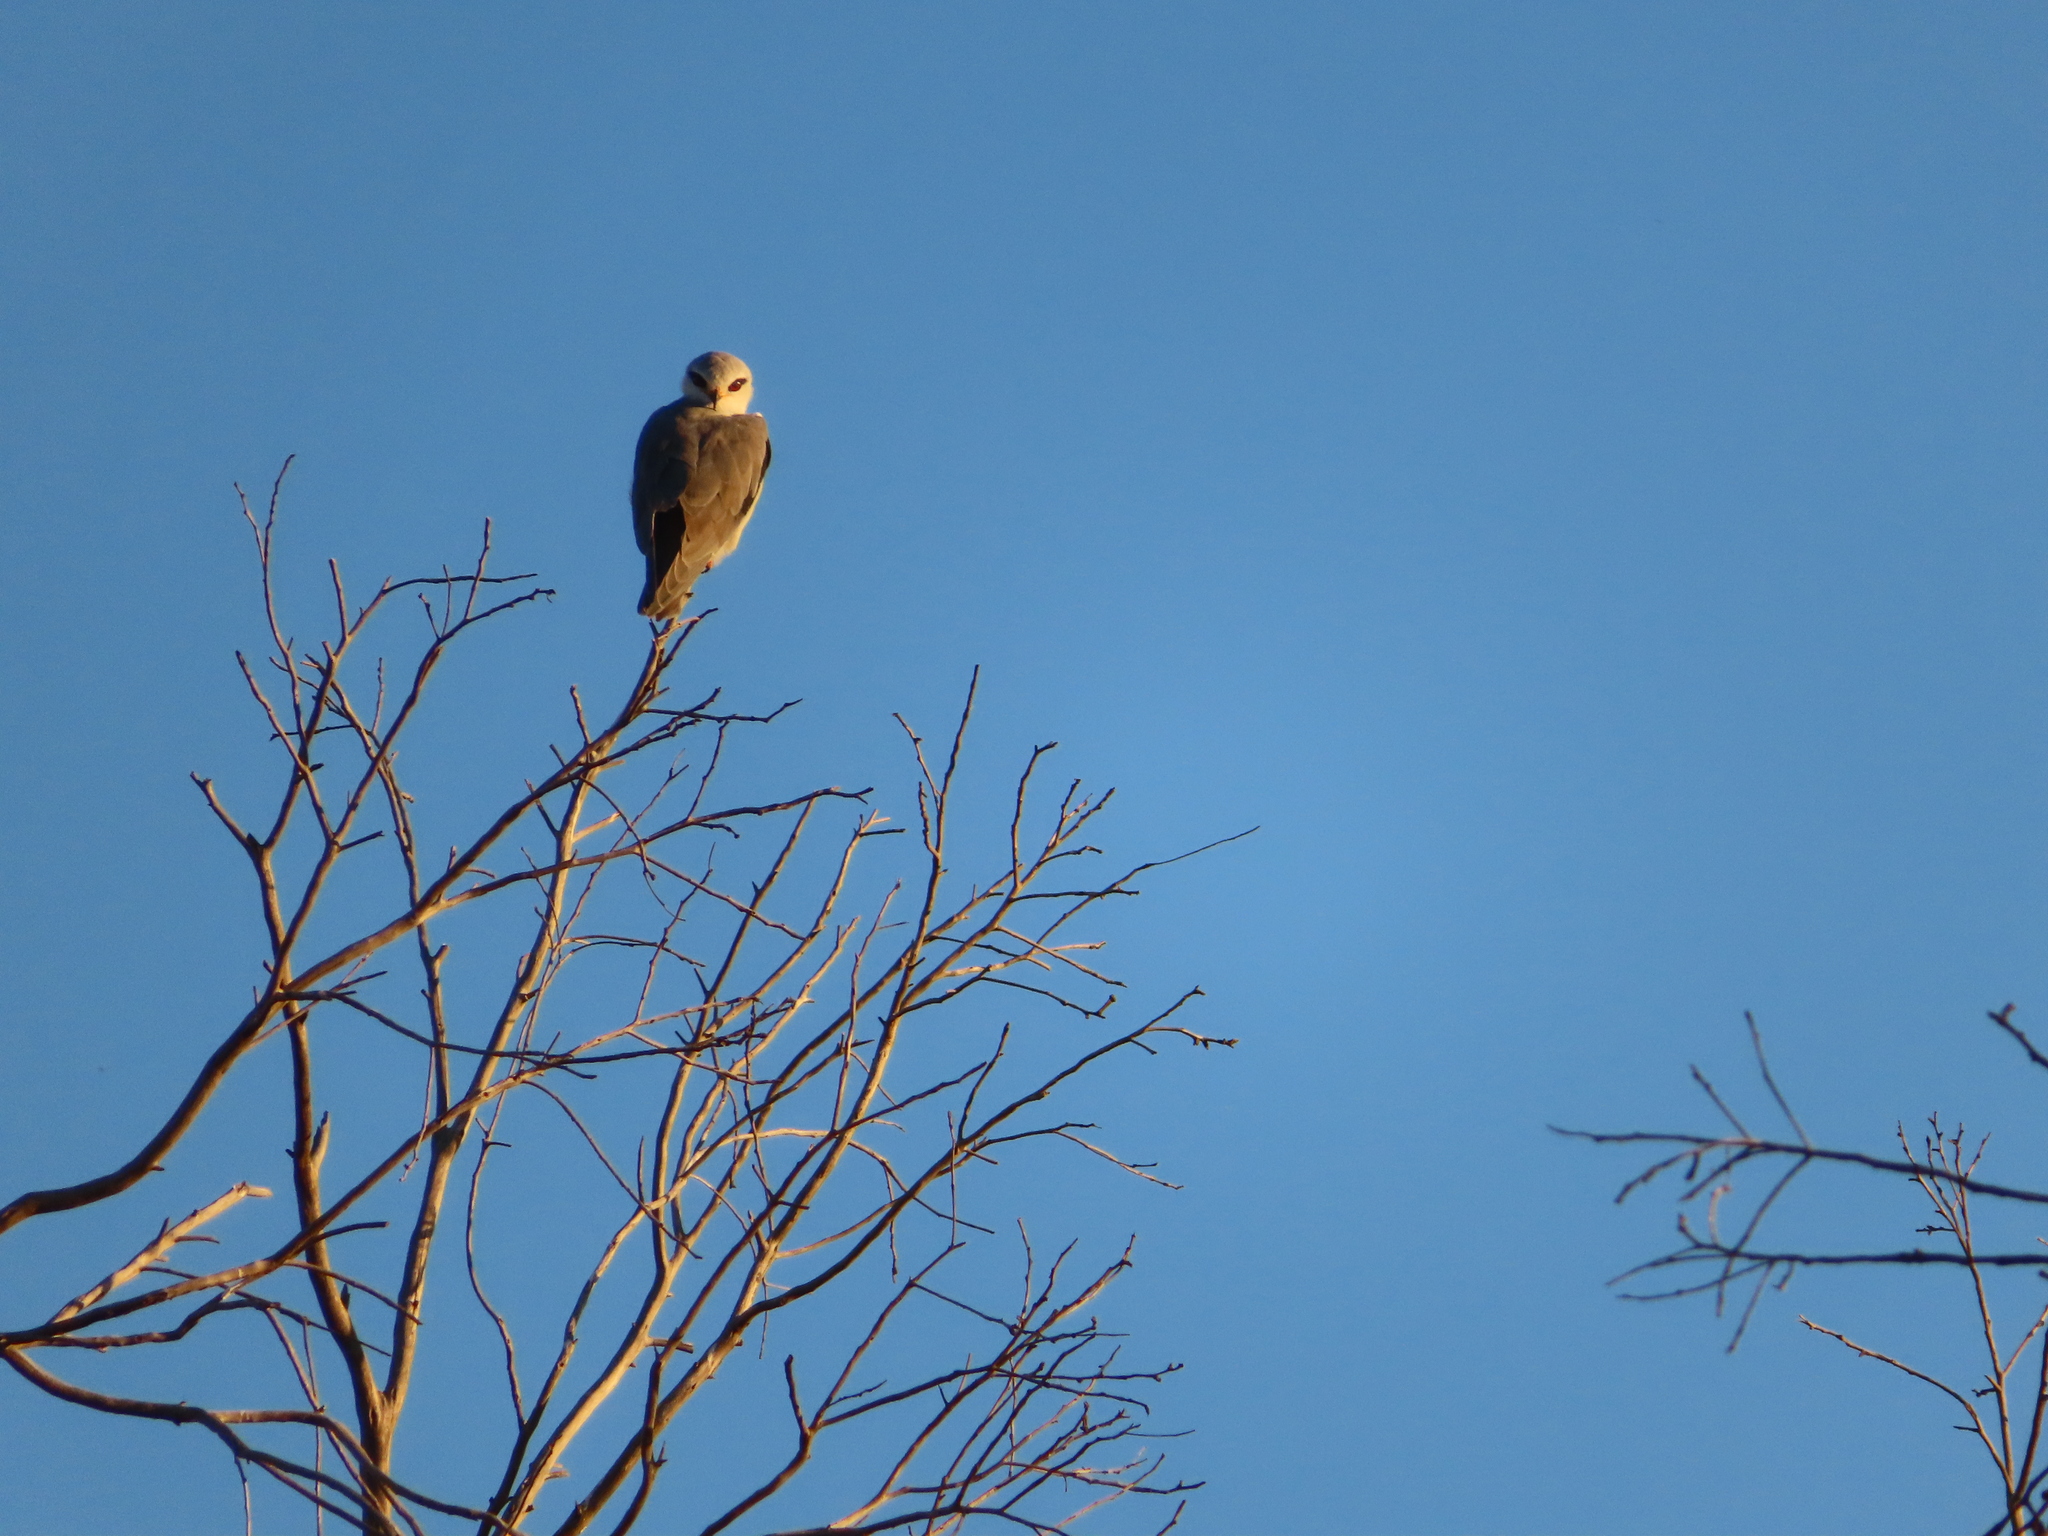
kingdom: Animalia
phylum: Chordata
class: Aves
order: Accipitriformes
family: Accipitridae
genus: Elanus
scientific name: Elanus caeruleus
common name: Black-winged kite
